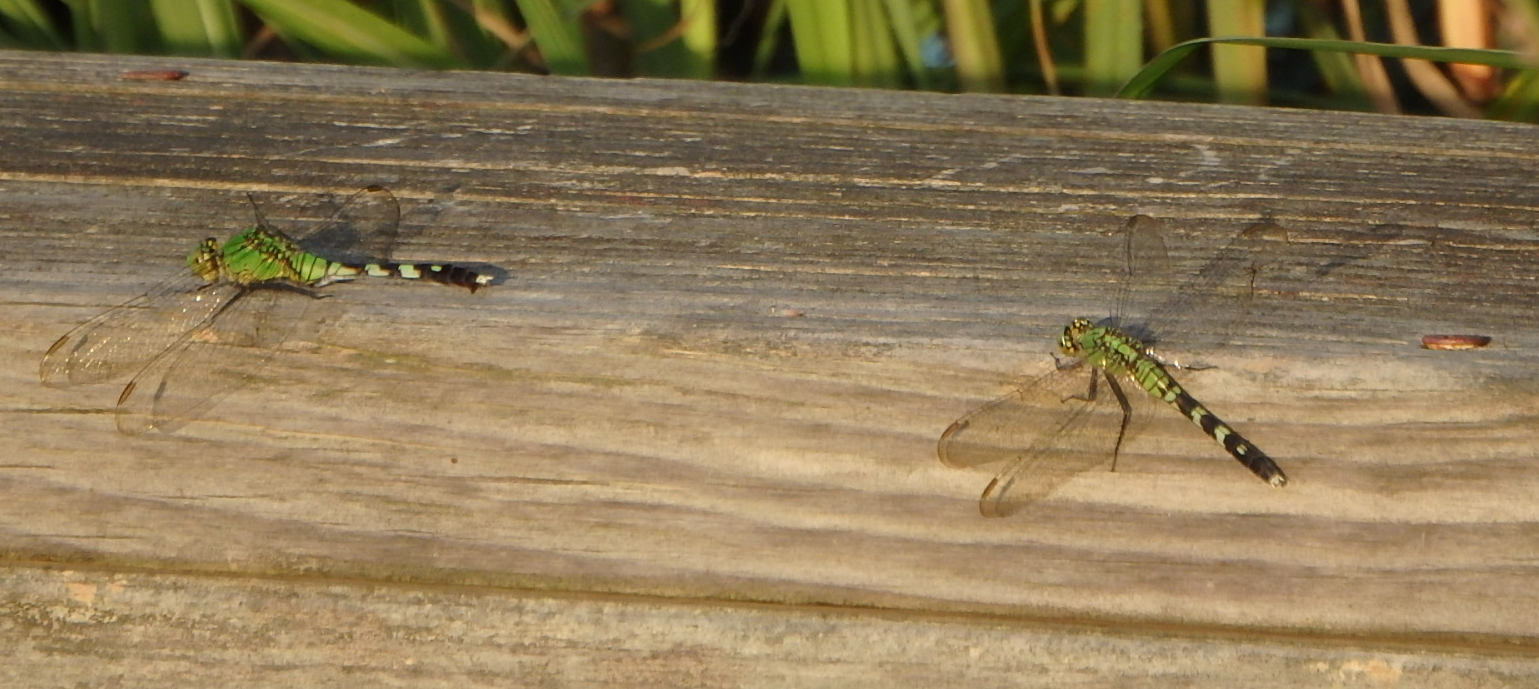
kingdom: Animalia
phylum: Arthropoda
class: Insecta
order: Odonata
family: Libellulidae
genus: Erythemis
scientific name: Erythemis simplicicollis
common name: Eastern pondhawk
